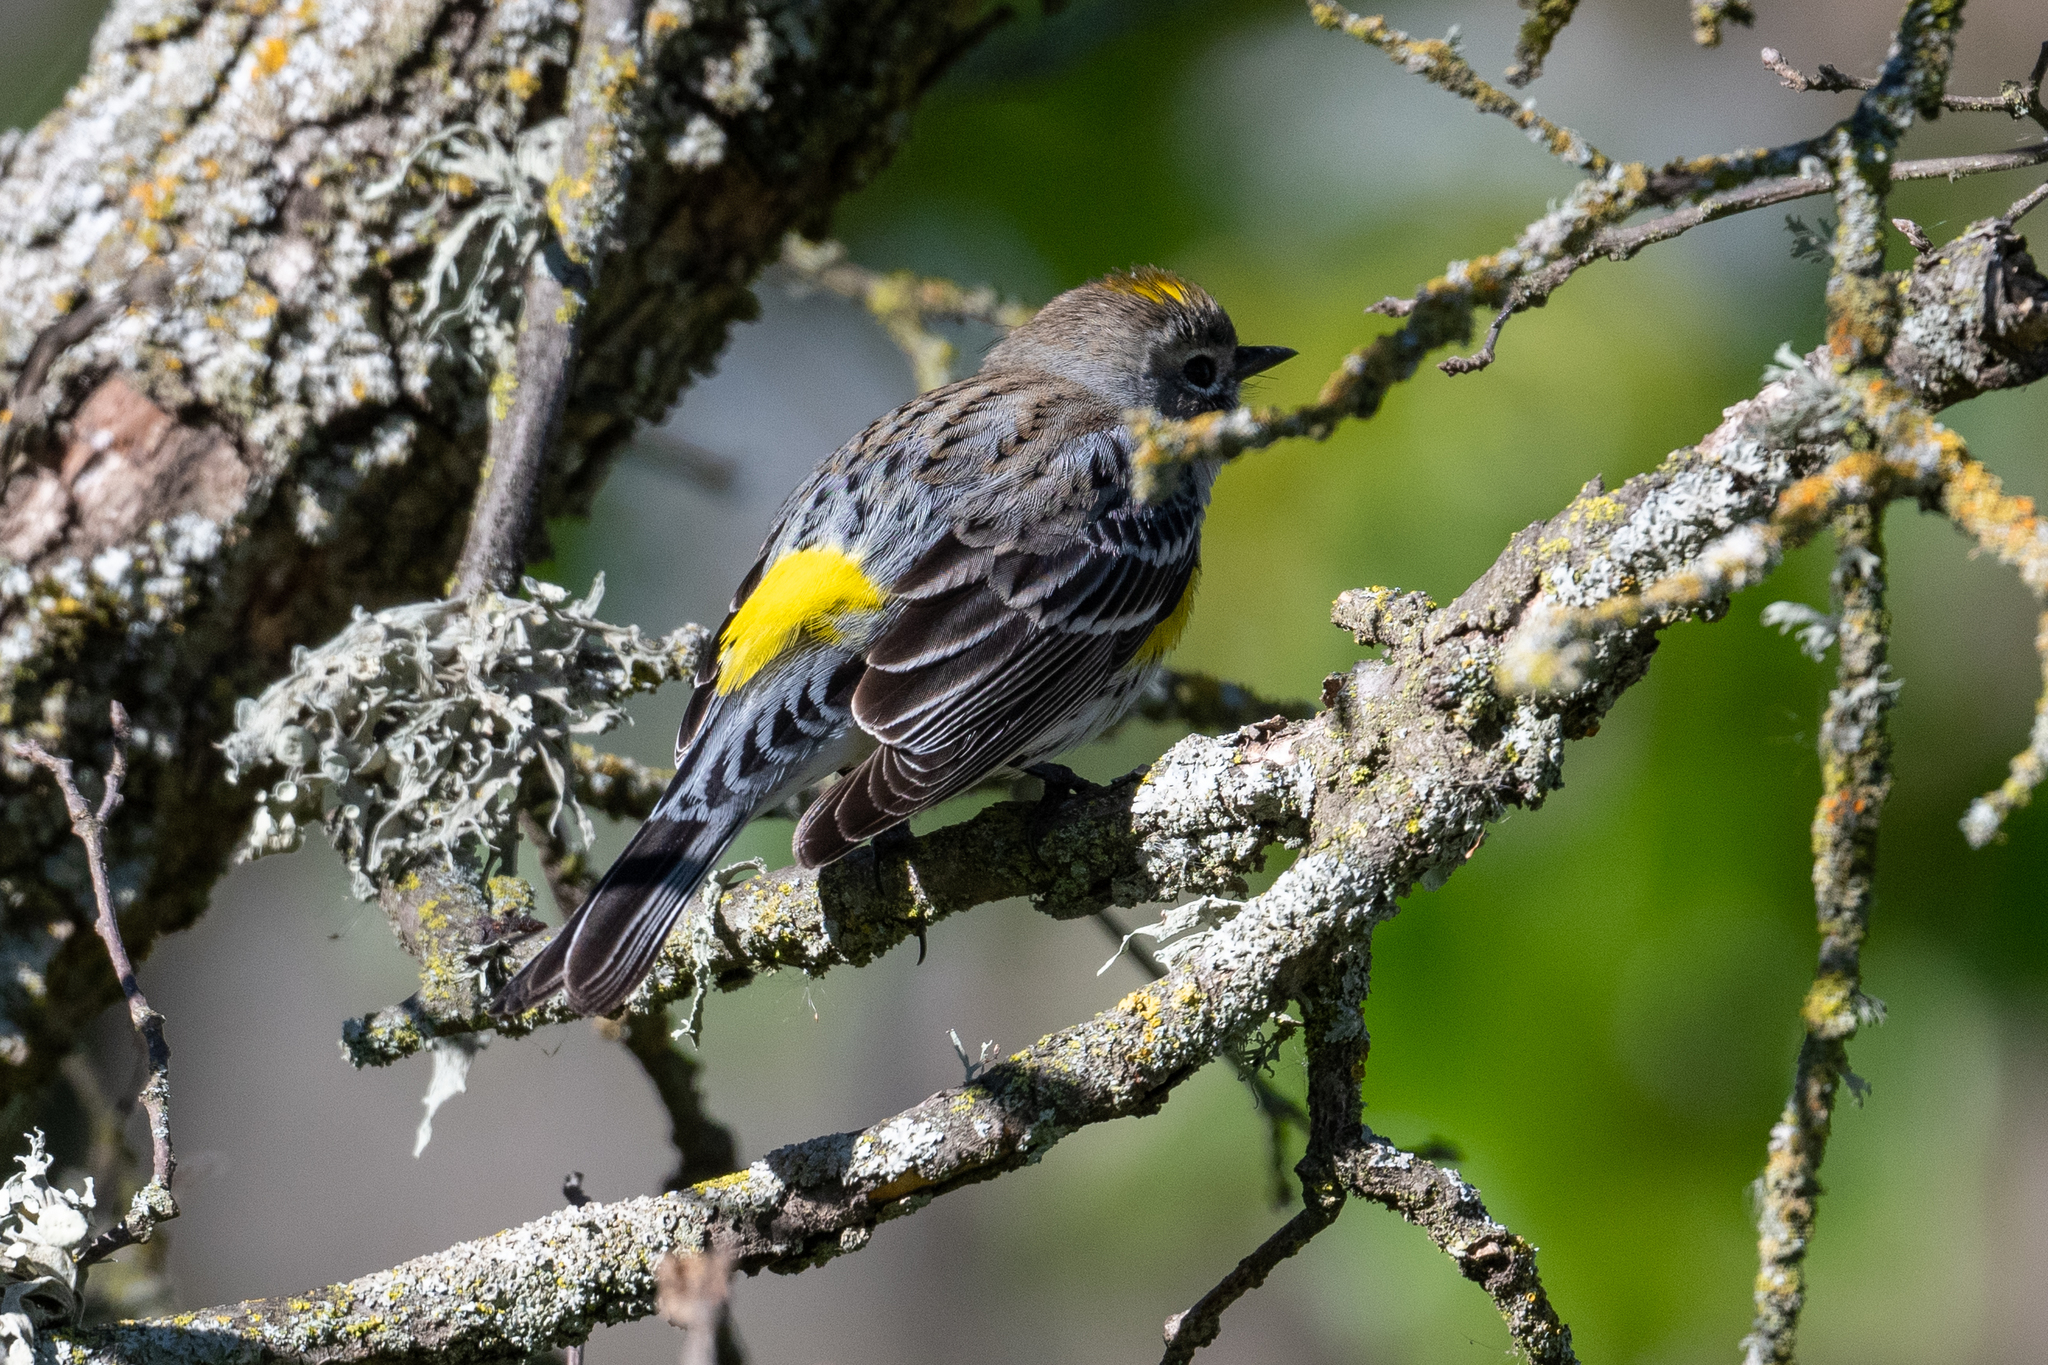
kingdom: Animalia
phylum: Chordata
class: Aves
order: Passeriformes
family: Parulidae
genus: Setophaga
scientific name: Setophaga coronata
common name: Myrtle warbler
